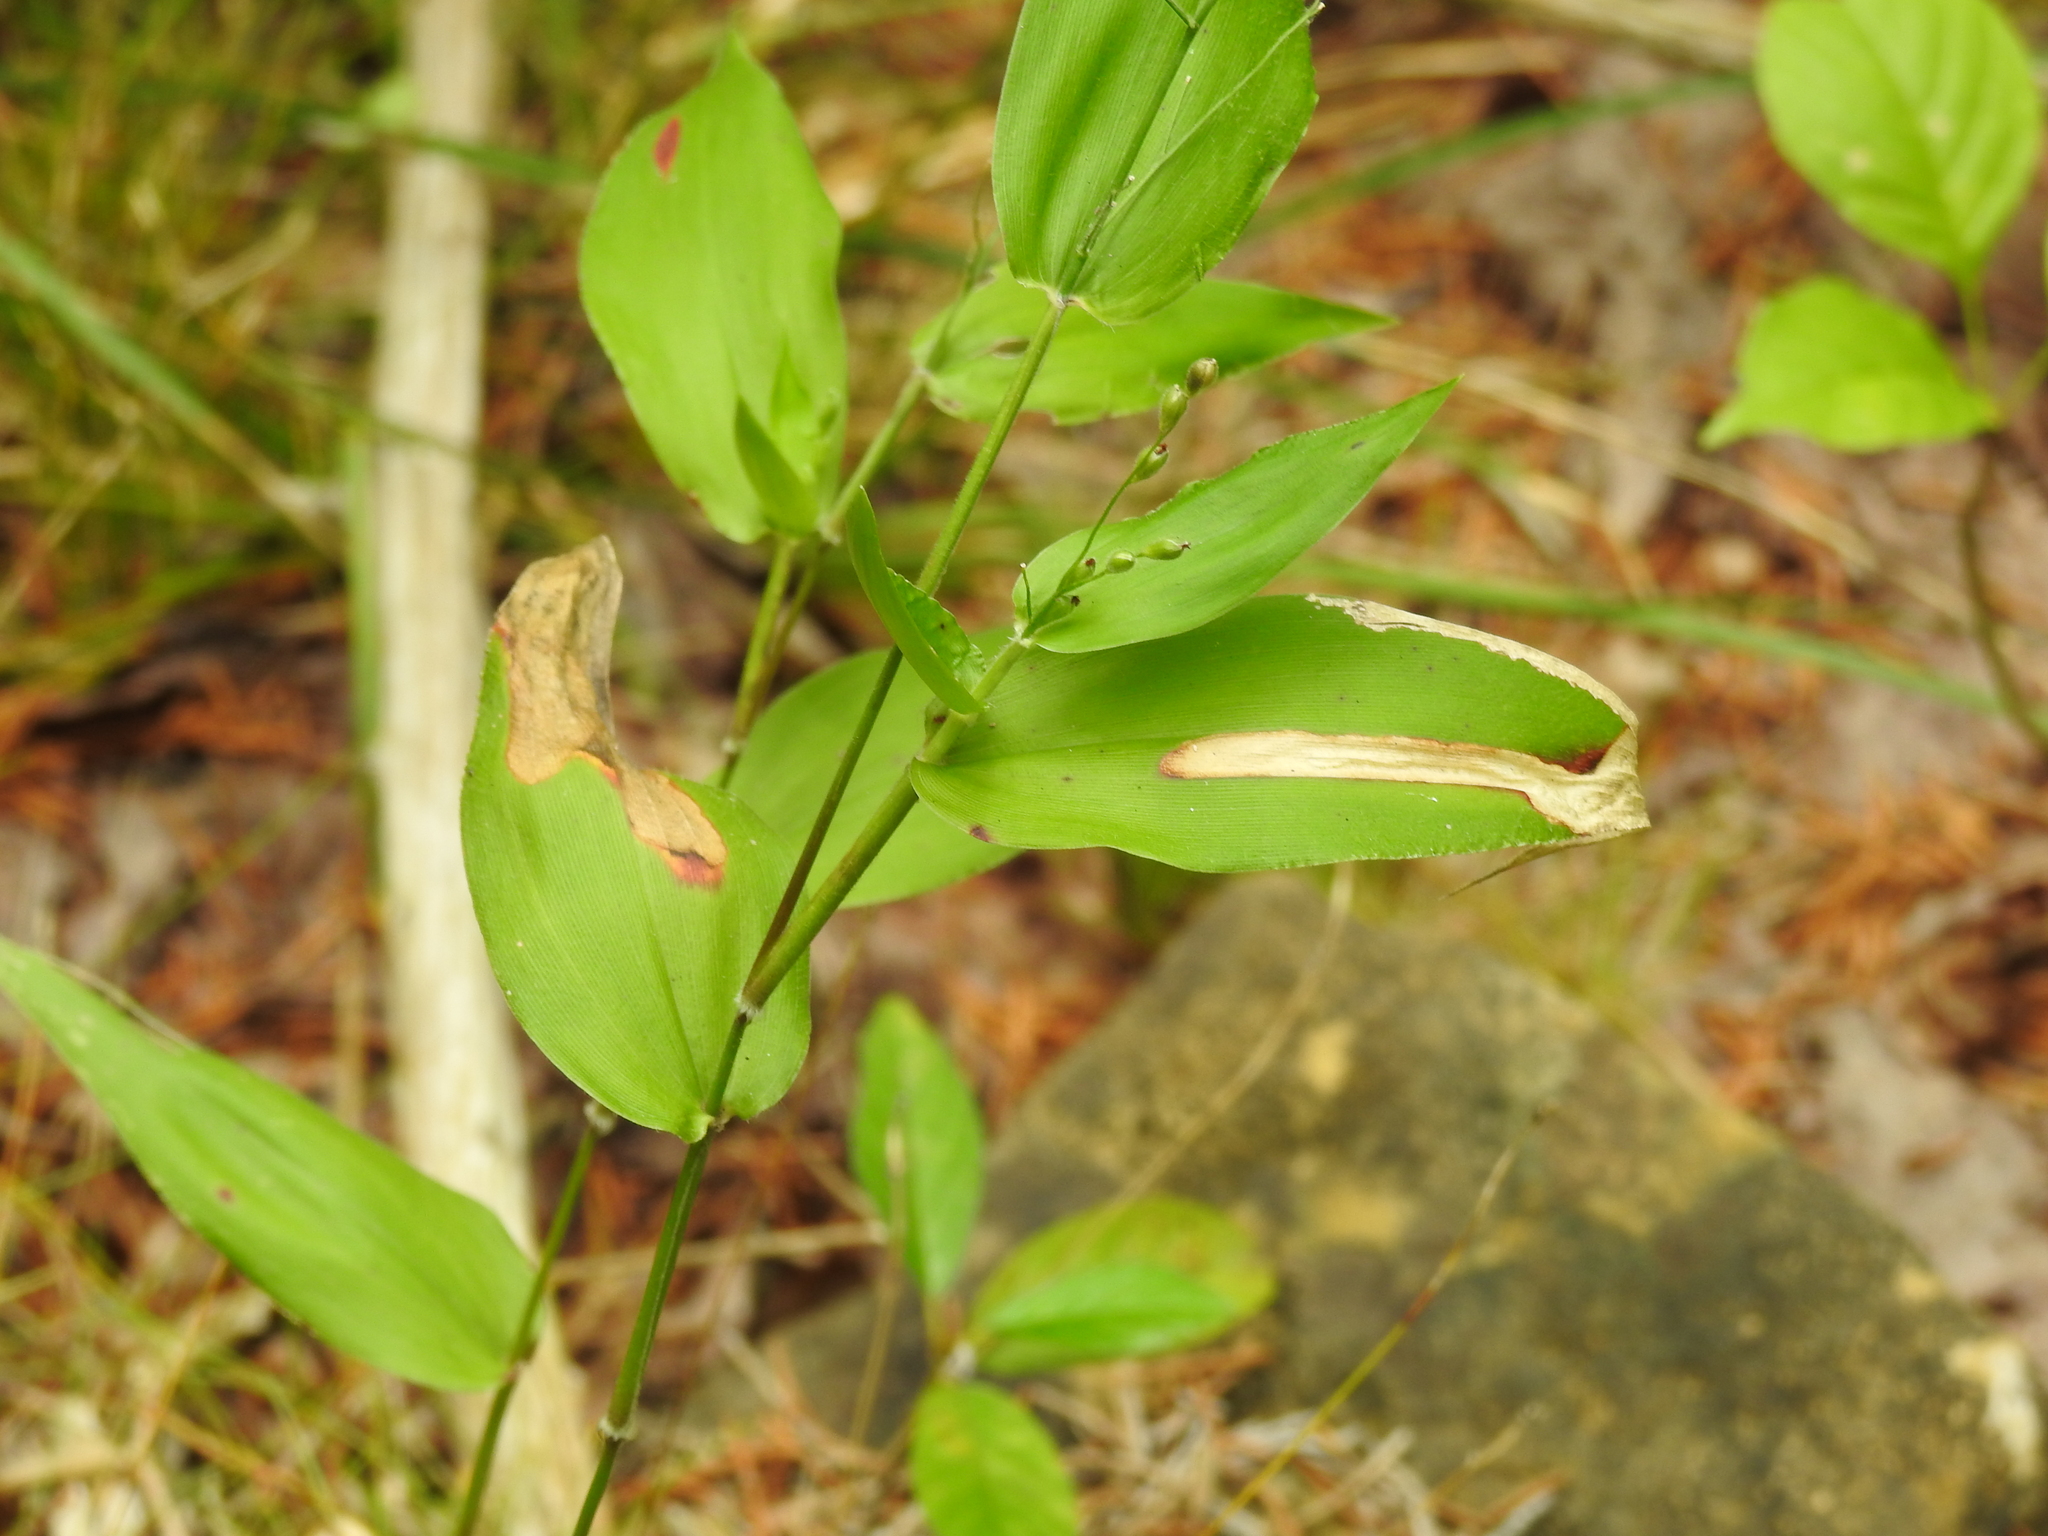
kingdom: Plantae
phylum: Tracheophyta
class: Liliopsida
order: Poales
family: Poaceae
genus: Dichanthelium
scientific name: Dichanthelium boscii
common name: Bosc's panic grass
